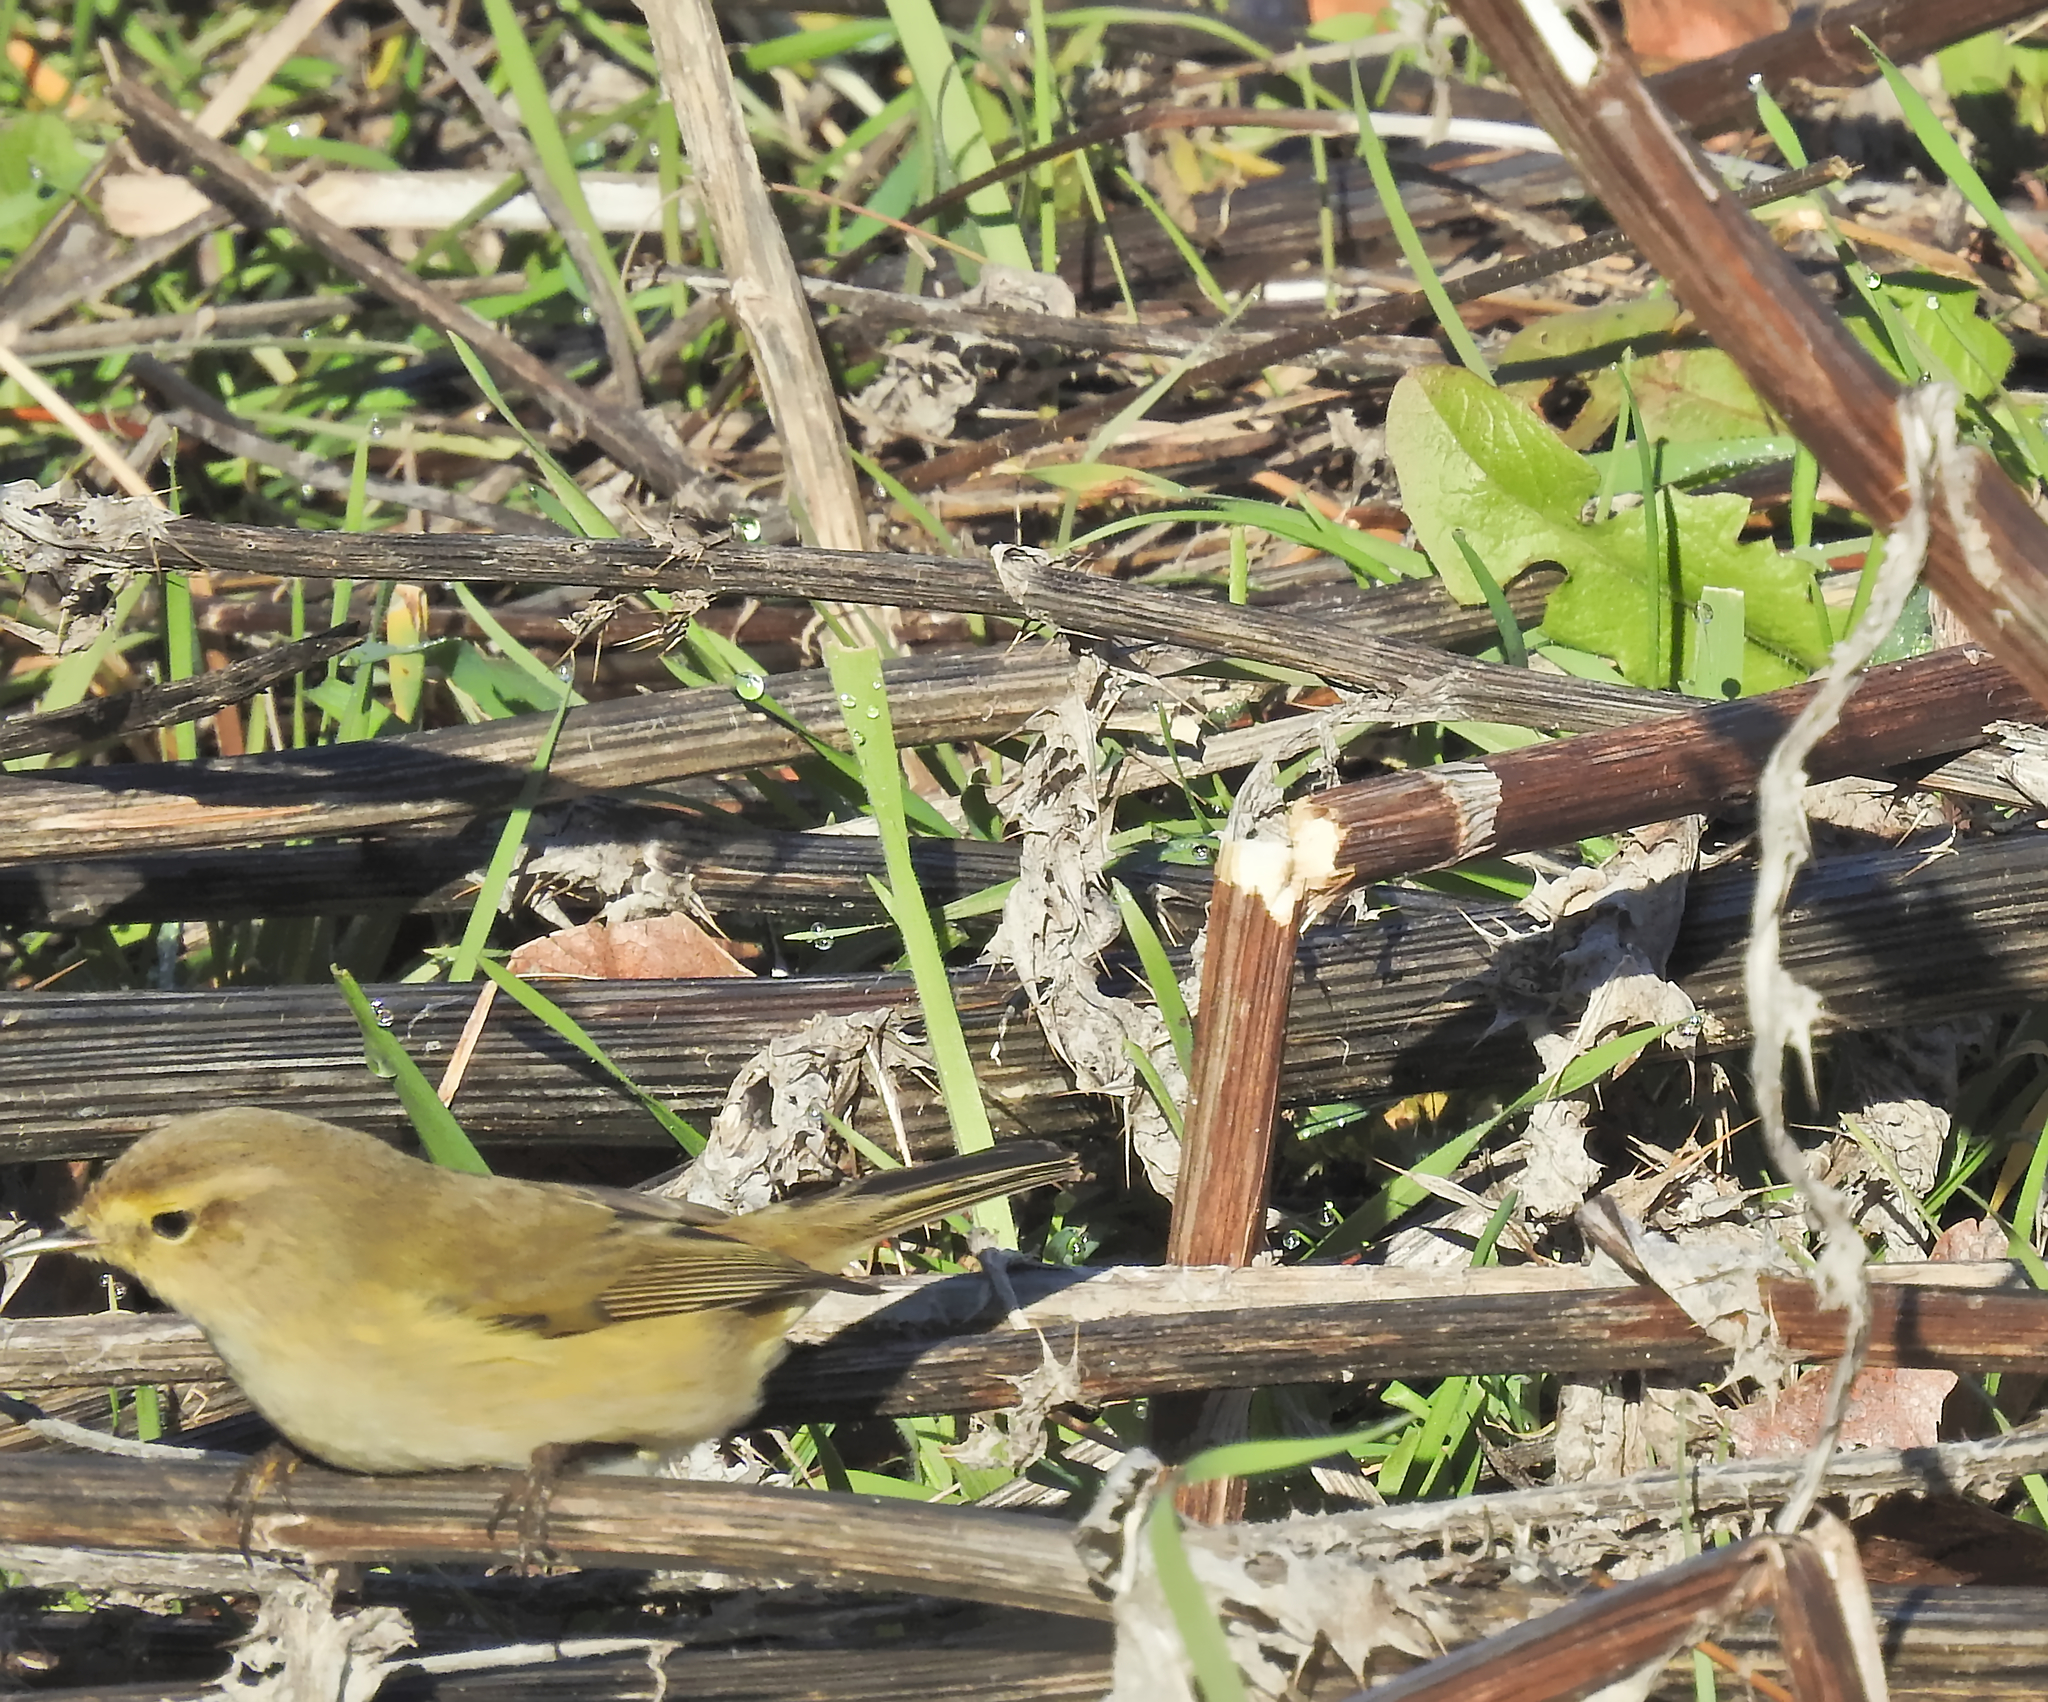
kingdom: Animalia
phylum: Chordata
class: Aves
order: Passeriformes
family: Phylloscopidae
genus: Phylloscopus
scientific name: Phylloscopus collybita
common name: Common chiffchaff
